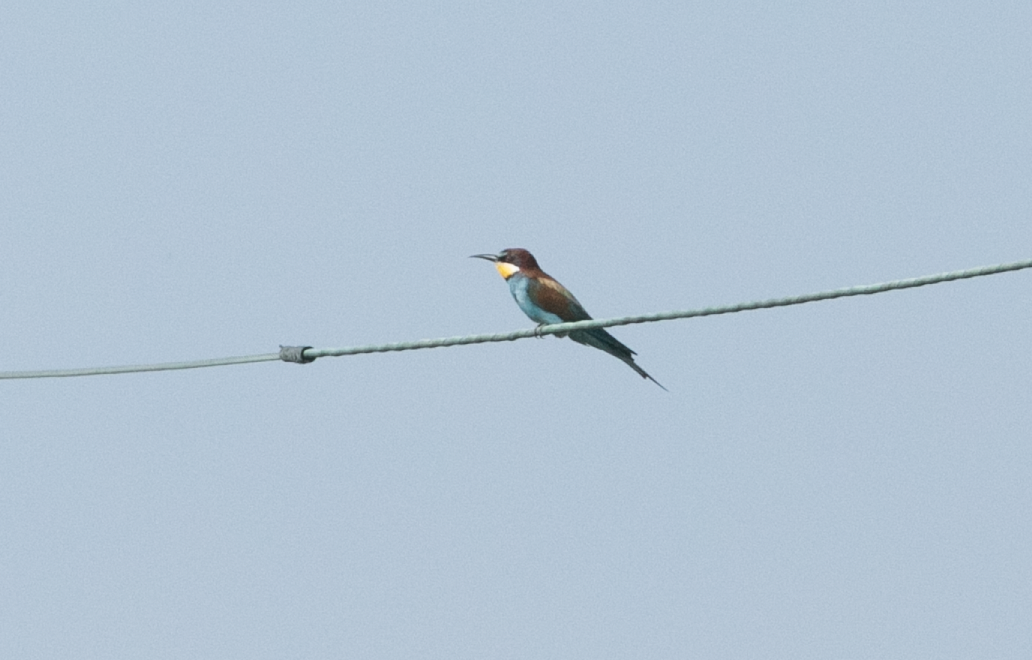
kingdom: Animalia
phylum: Chordata
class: Aves
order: Coraciiformes
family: Meropidae
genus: Merops
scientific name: Merops apiaster
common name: European bee-eater
